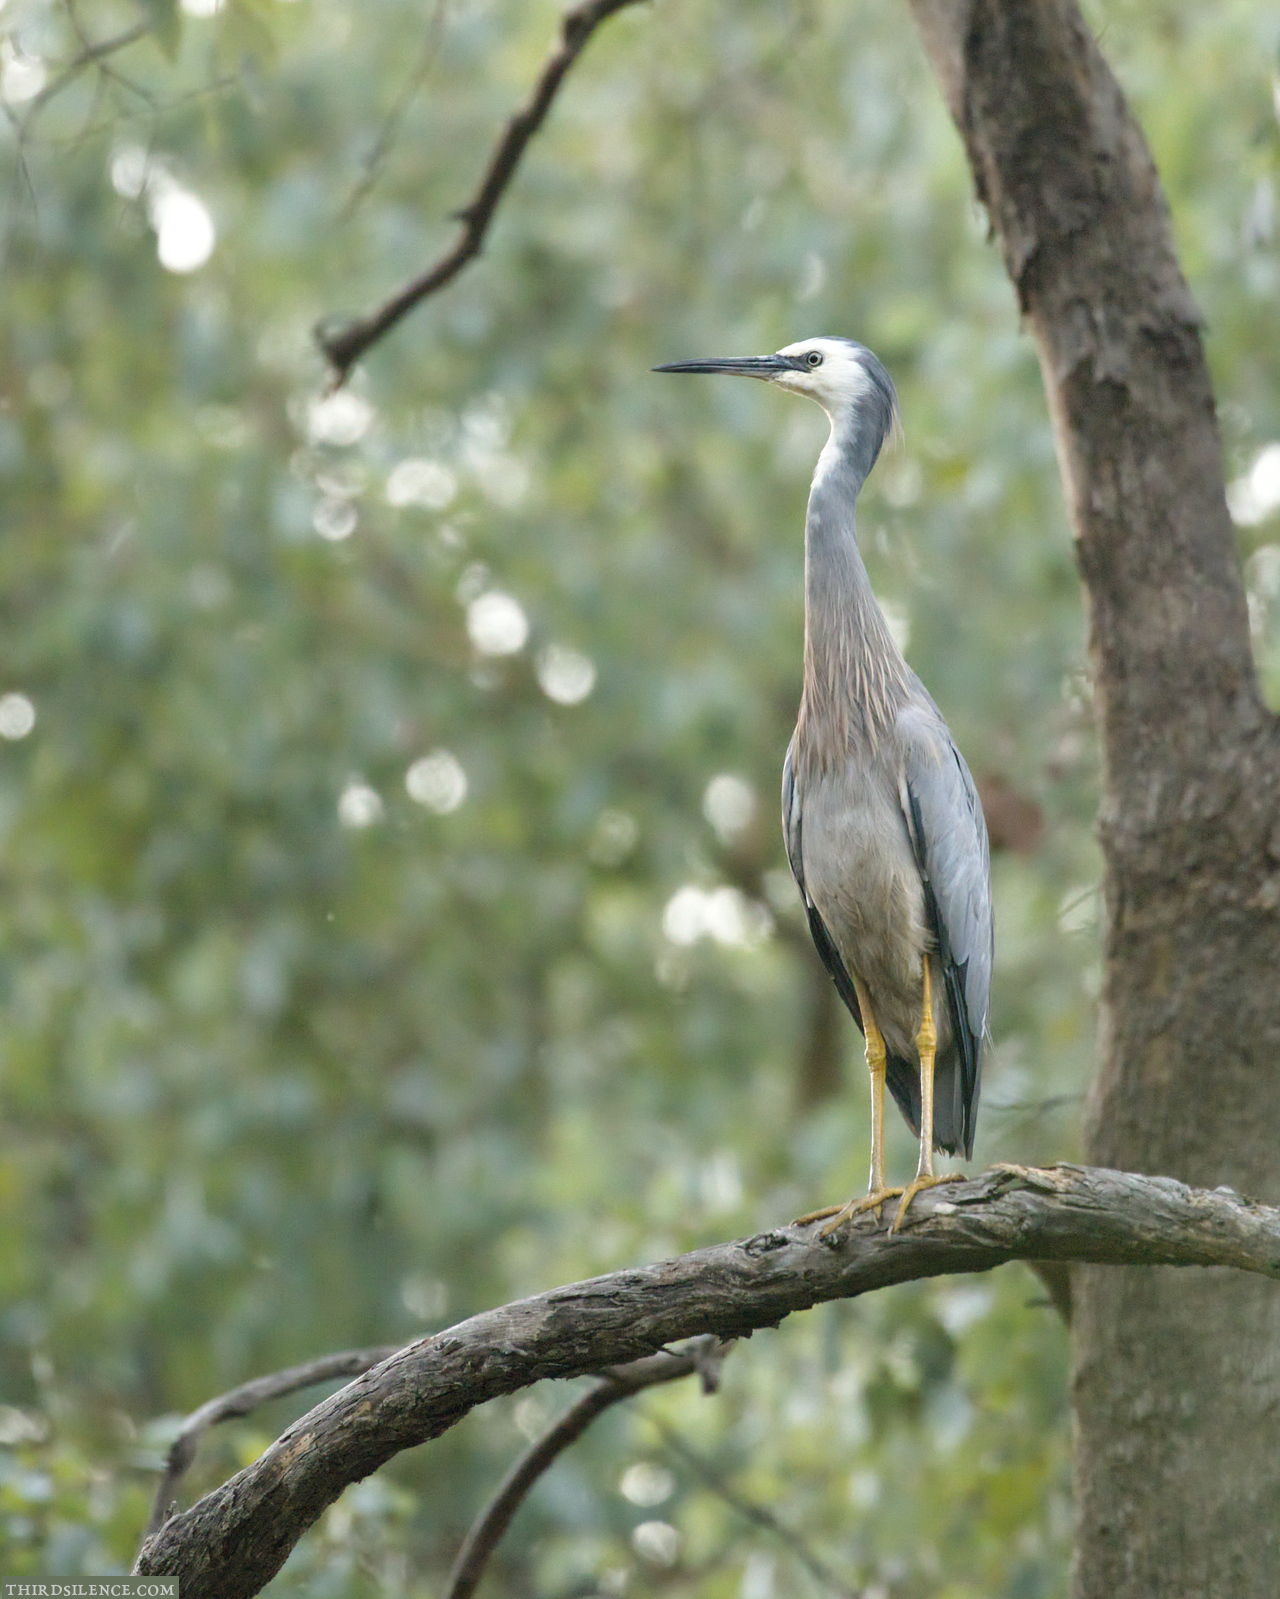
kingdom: Animalia
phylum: Chordata
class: Aves
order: Pelecaniformes
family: Ardeidae
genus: Egretta
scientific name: Egretta novaehollandiae
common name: White-faced heron
